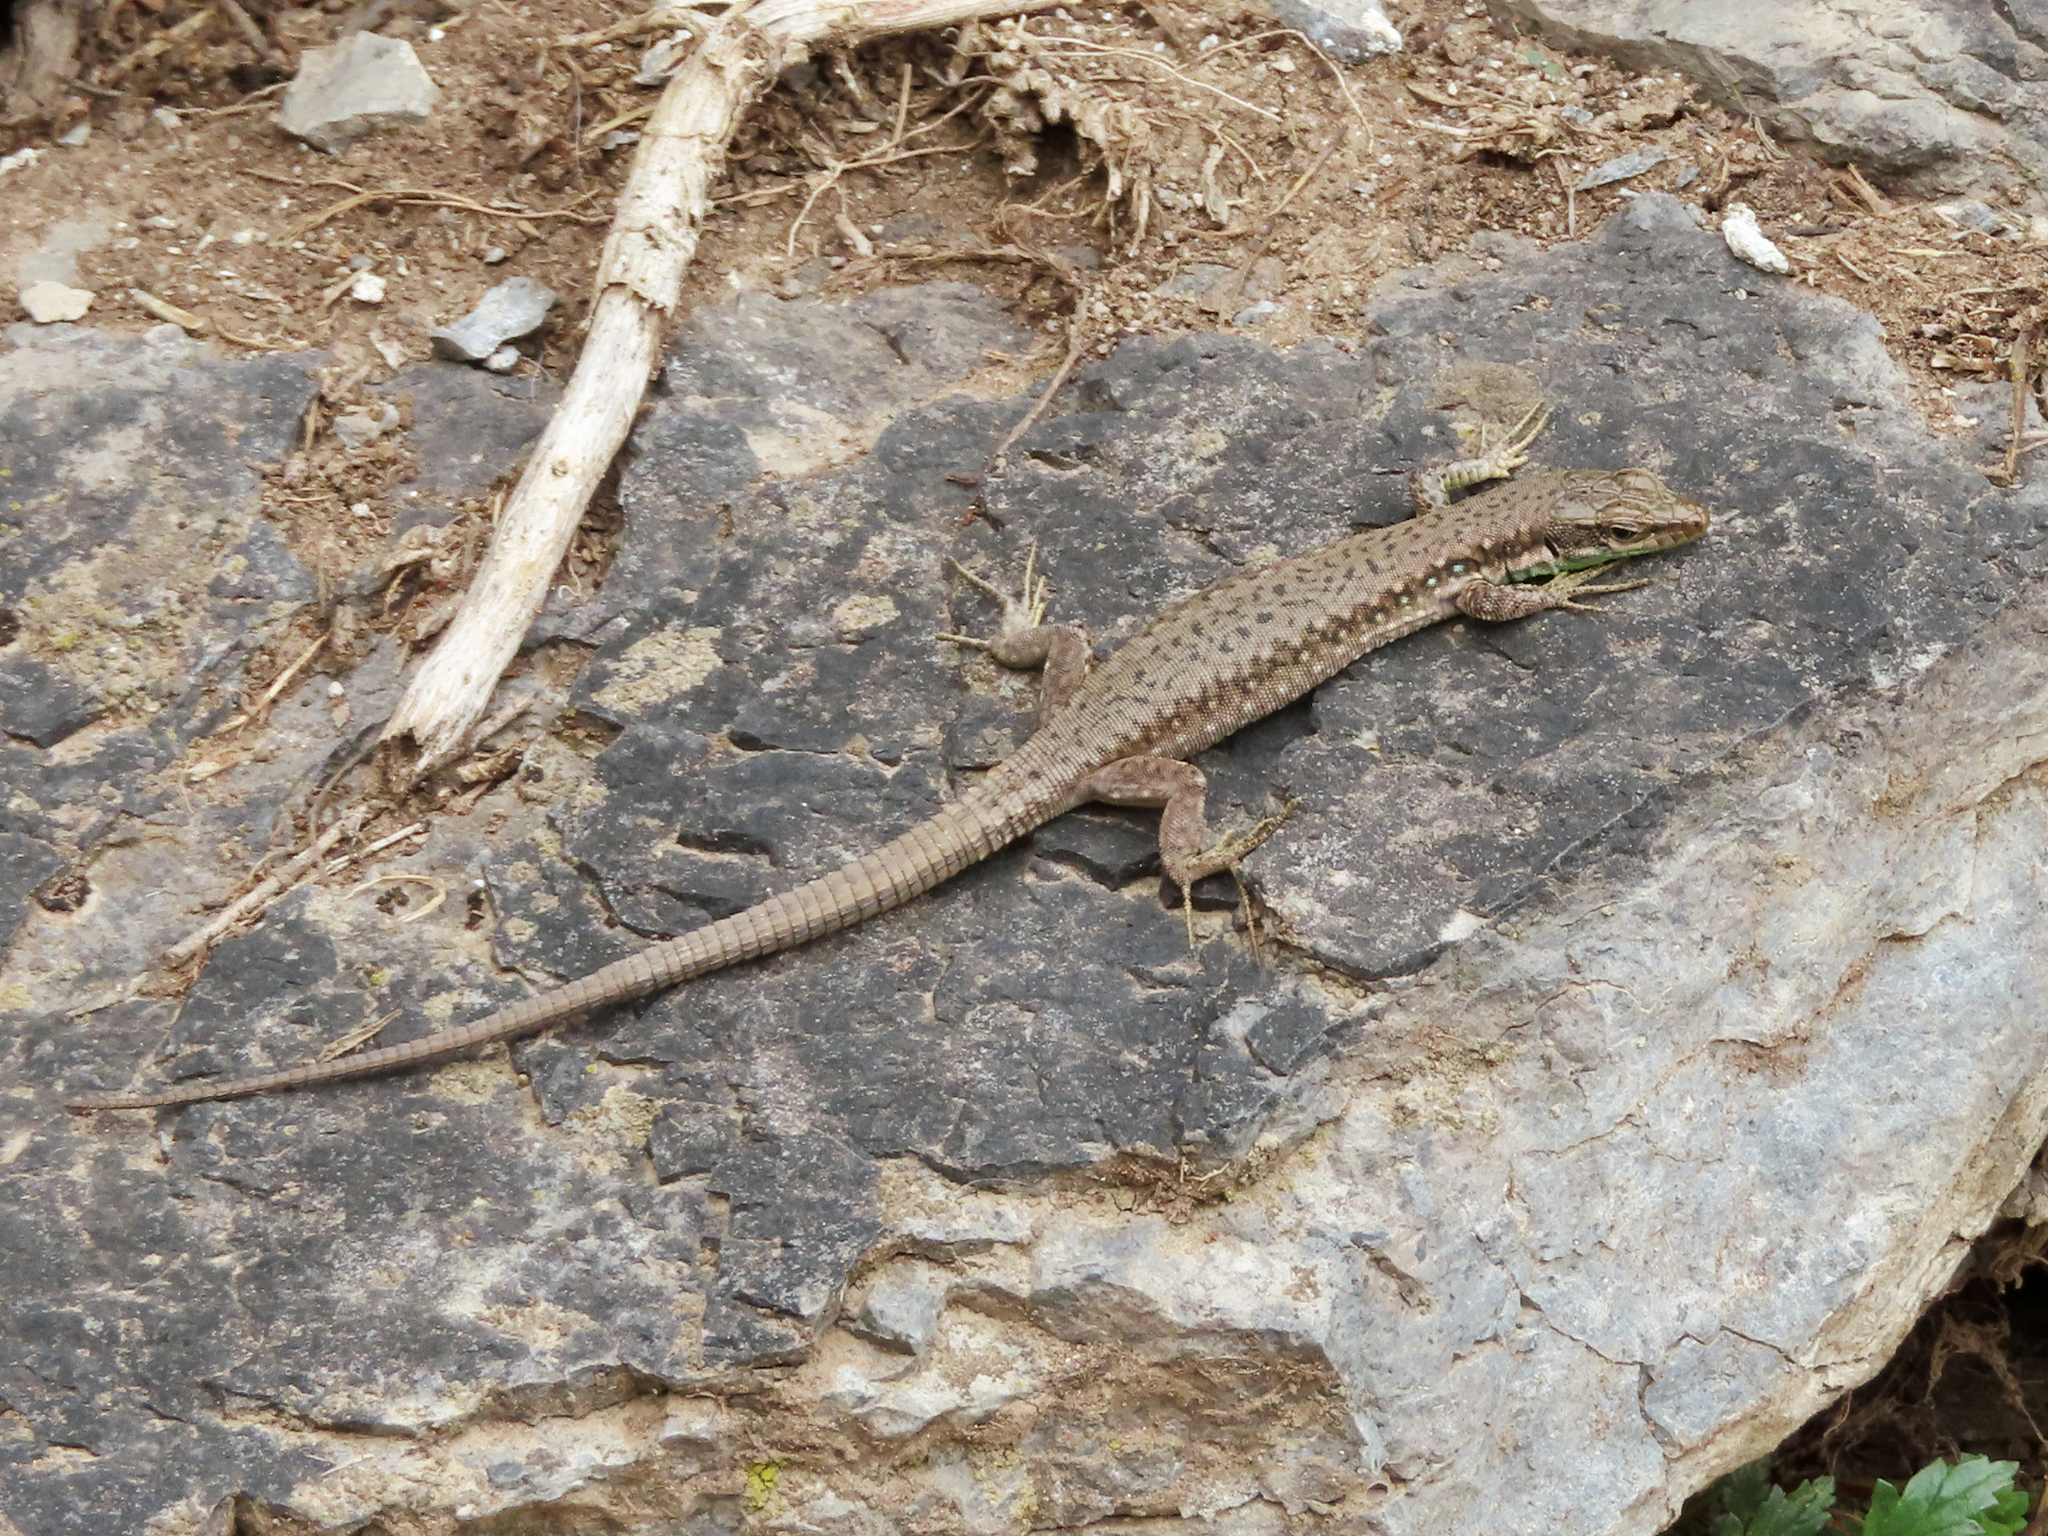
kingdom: Animalia
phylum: Chordata
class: Squamata
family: Lacertidae
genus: Darevskia
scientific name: Darevskia raddei
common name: Radde's lizard
